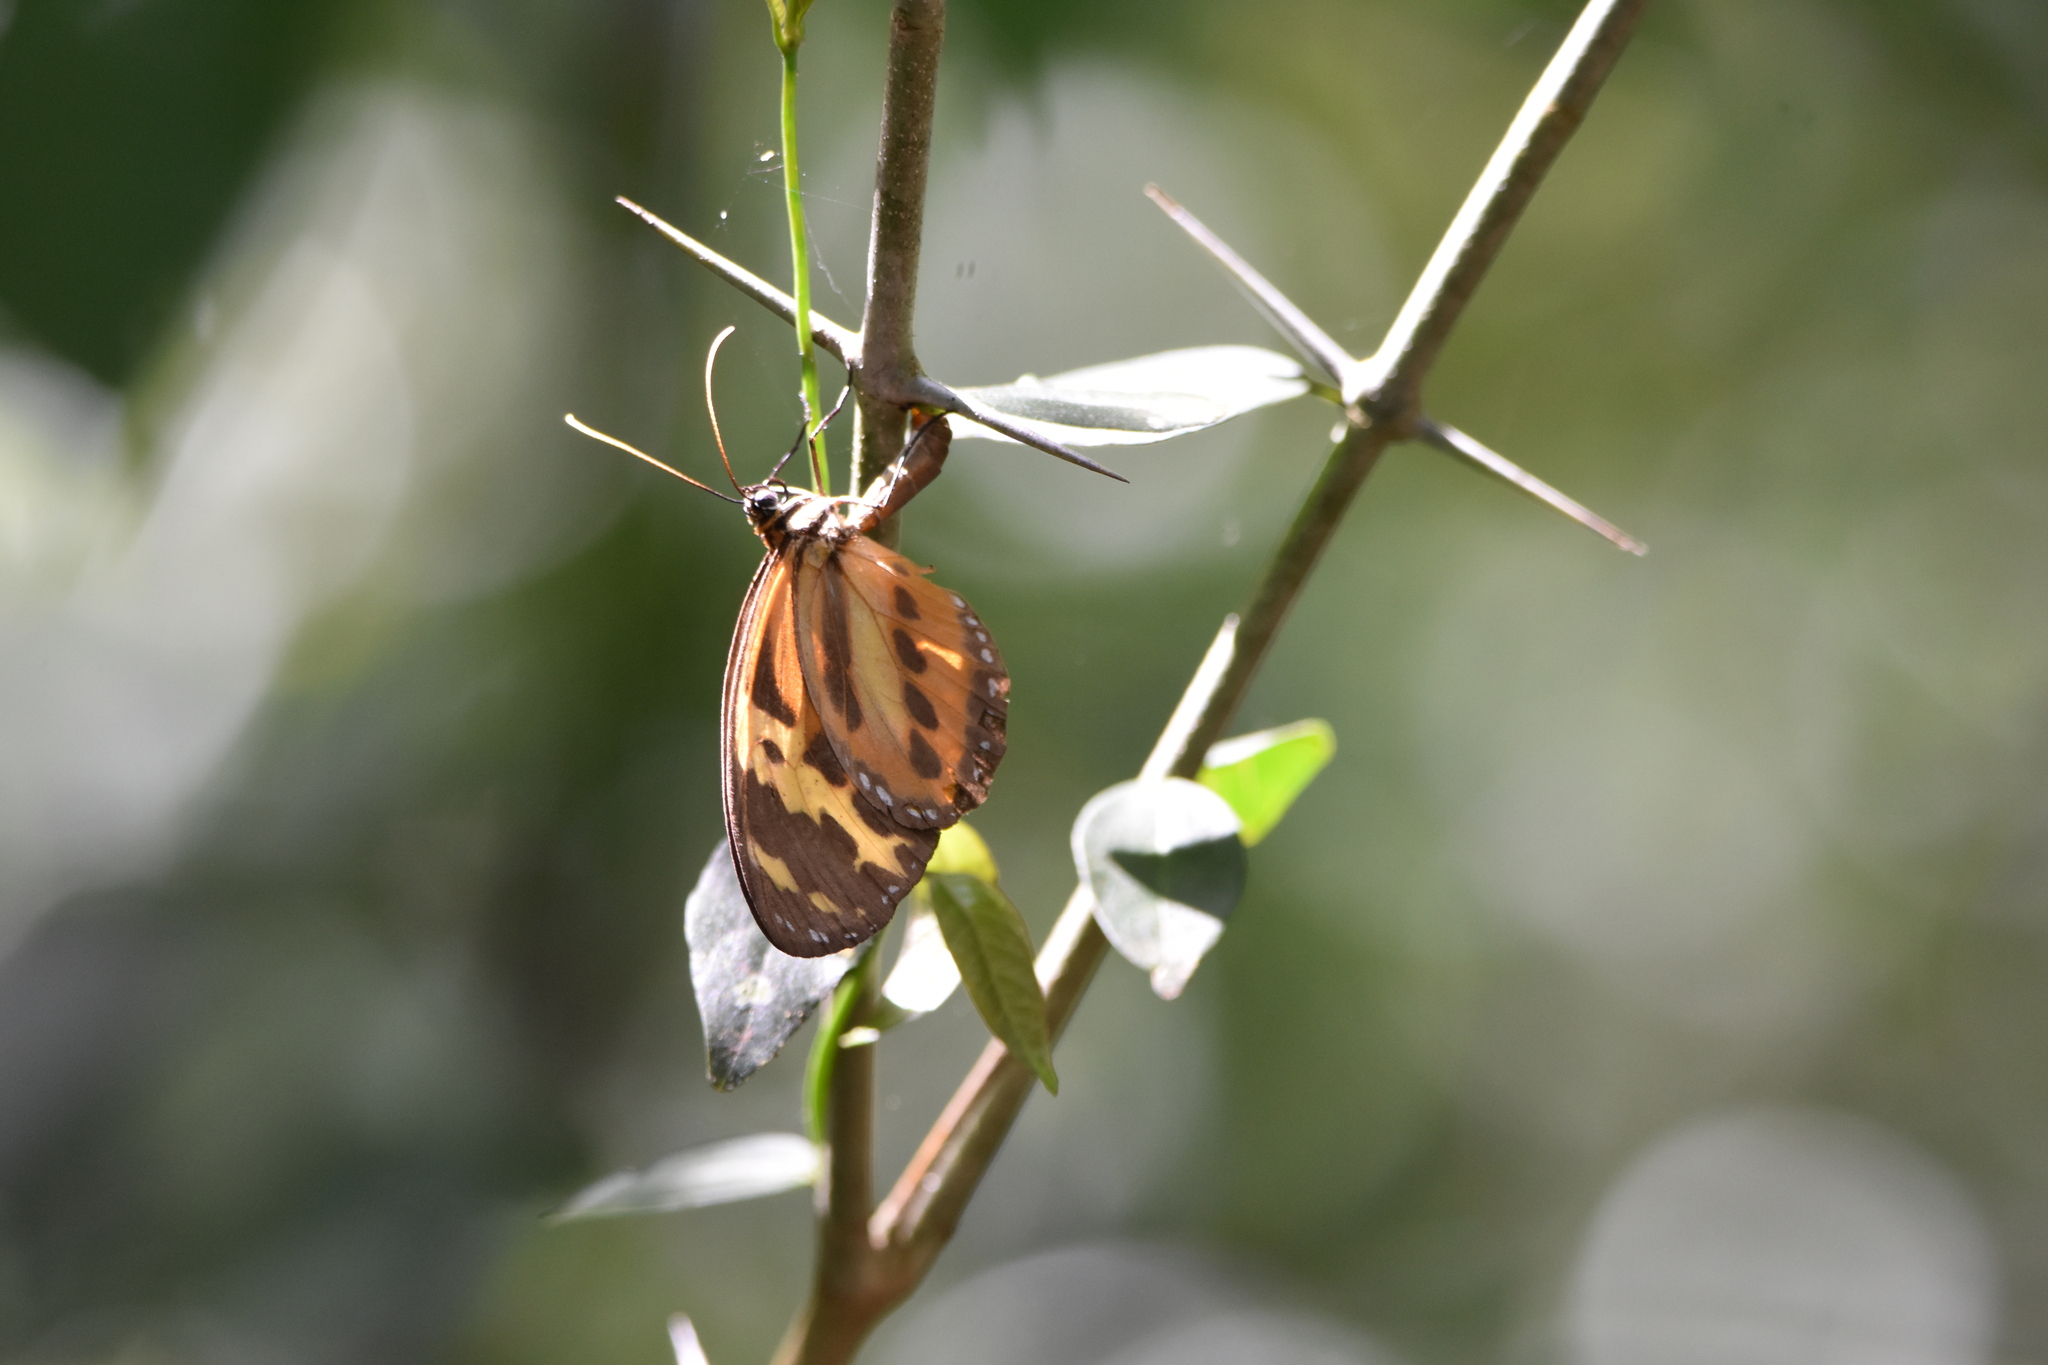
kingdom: Animalia
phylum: Arthropoda
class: Insecta
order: Lepidoptera
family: Nymphalidae
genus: Tithorea
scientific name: Tithorea harmonia
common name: Harmonia tigerwing
